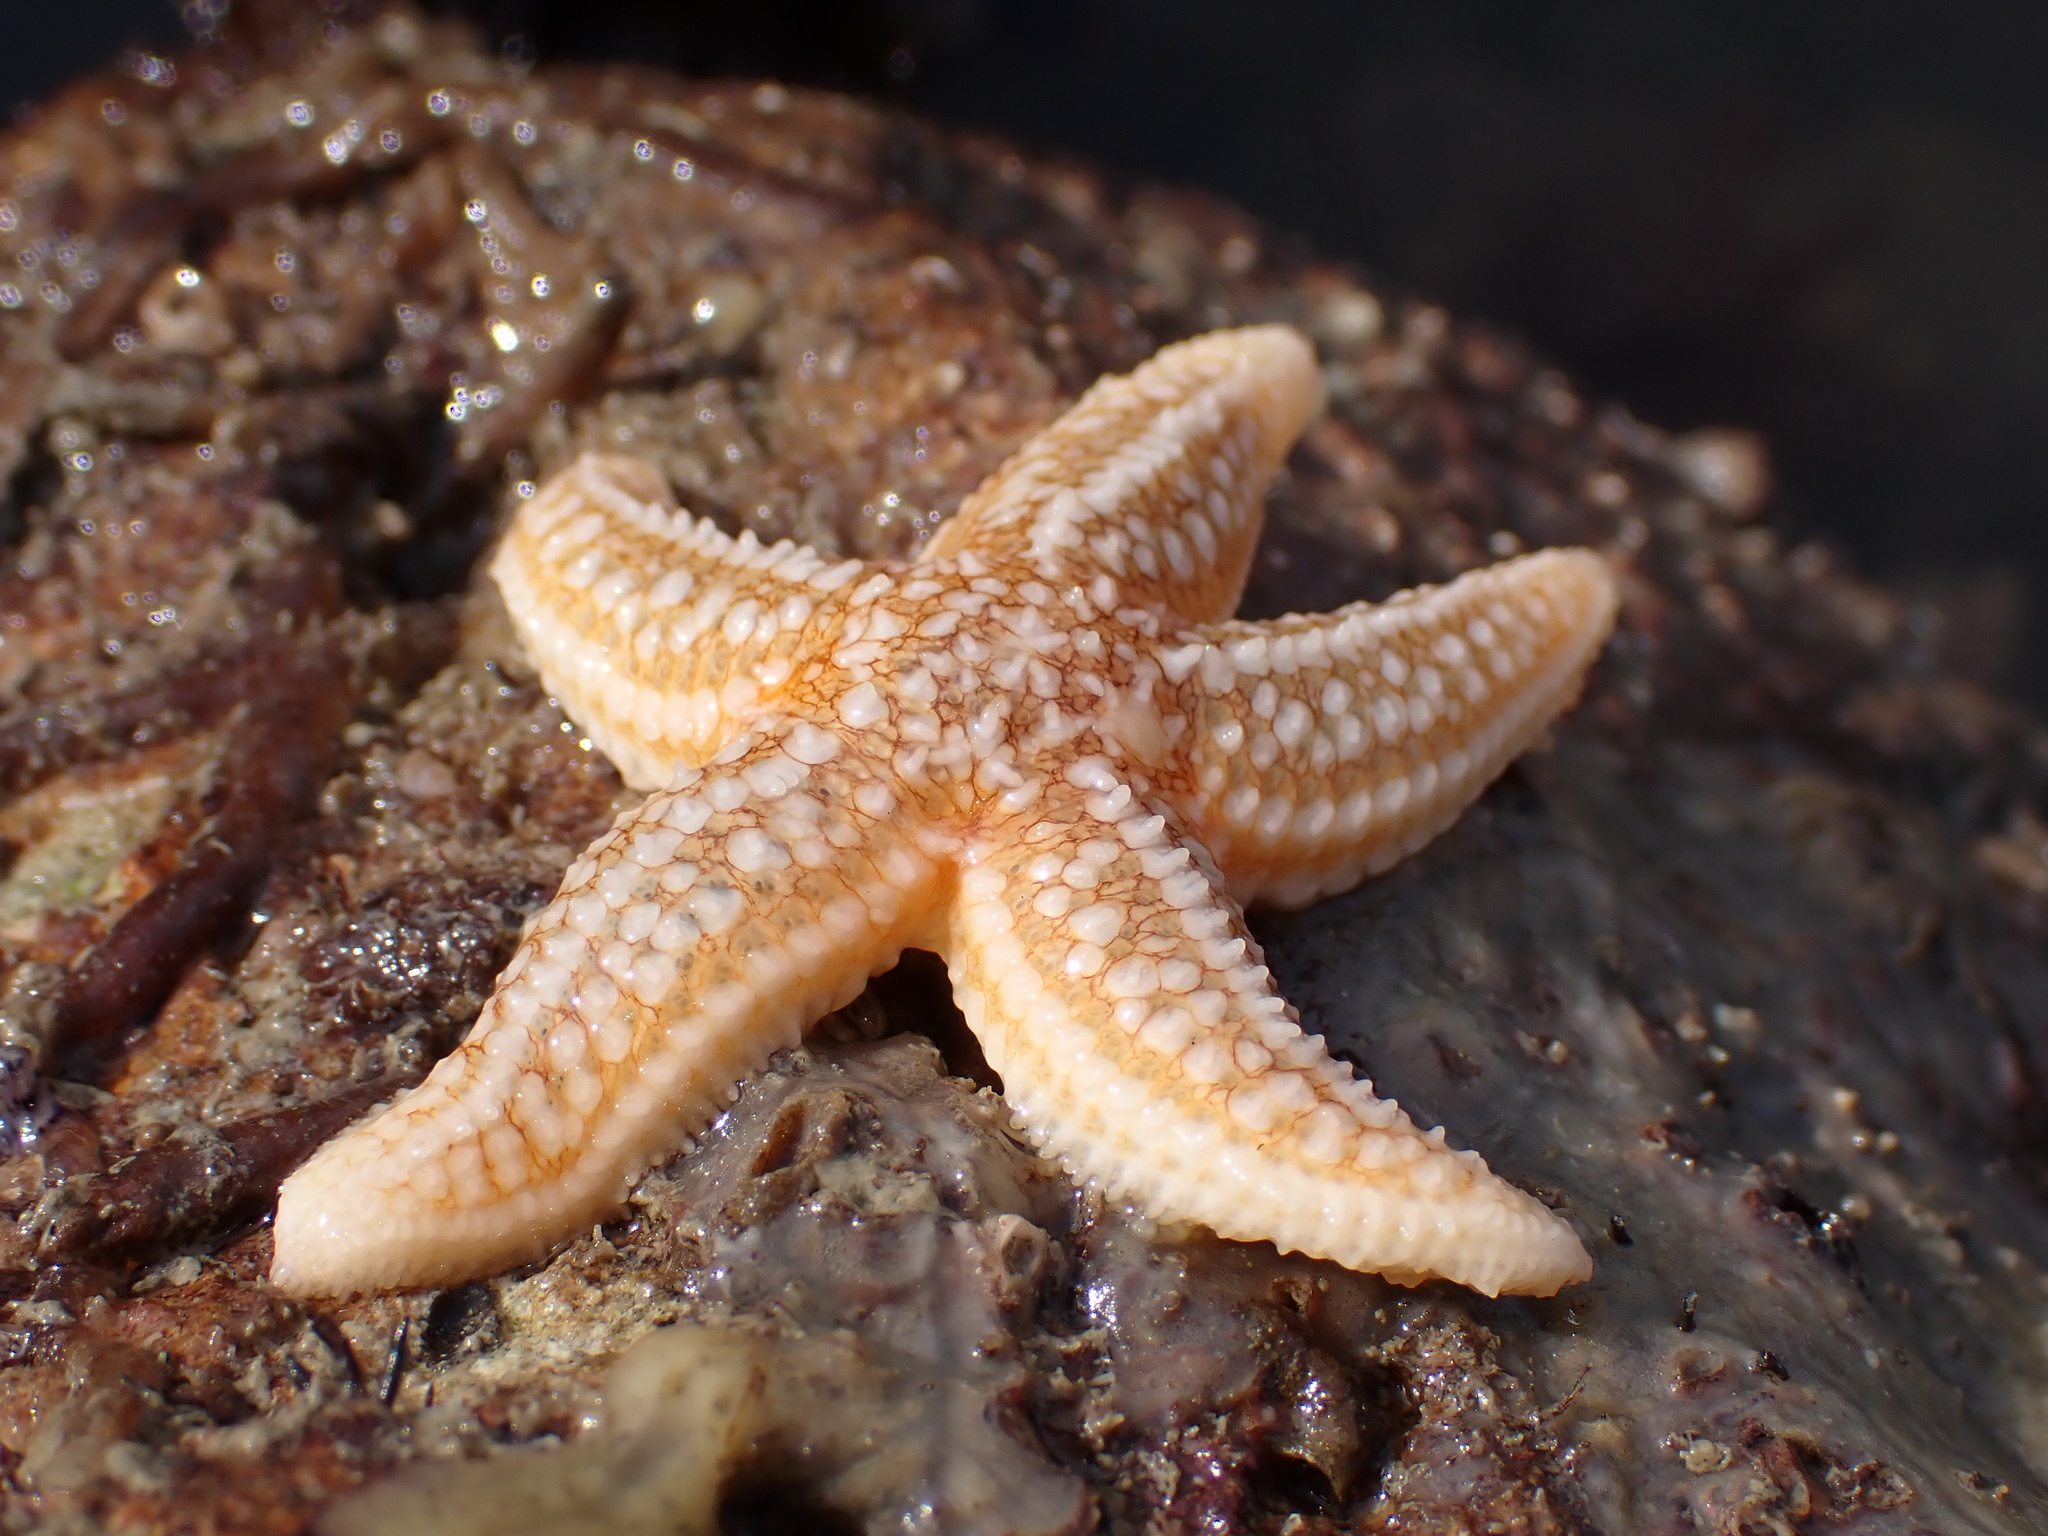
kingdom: Animalia
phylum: Echinodermata
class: Asteroidea
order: Forcipulatida
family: Asteriidae
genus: Asterias
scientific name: Asterias rubens
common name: Common starfish
